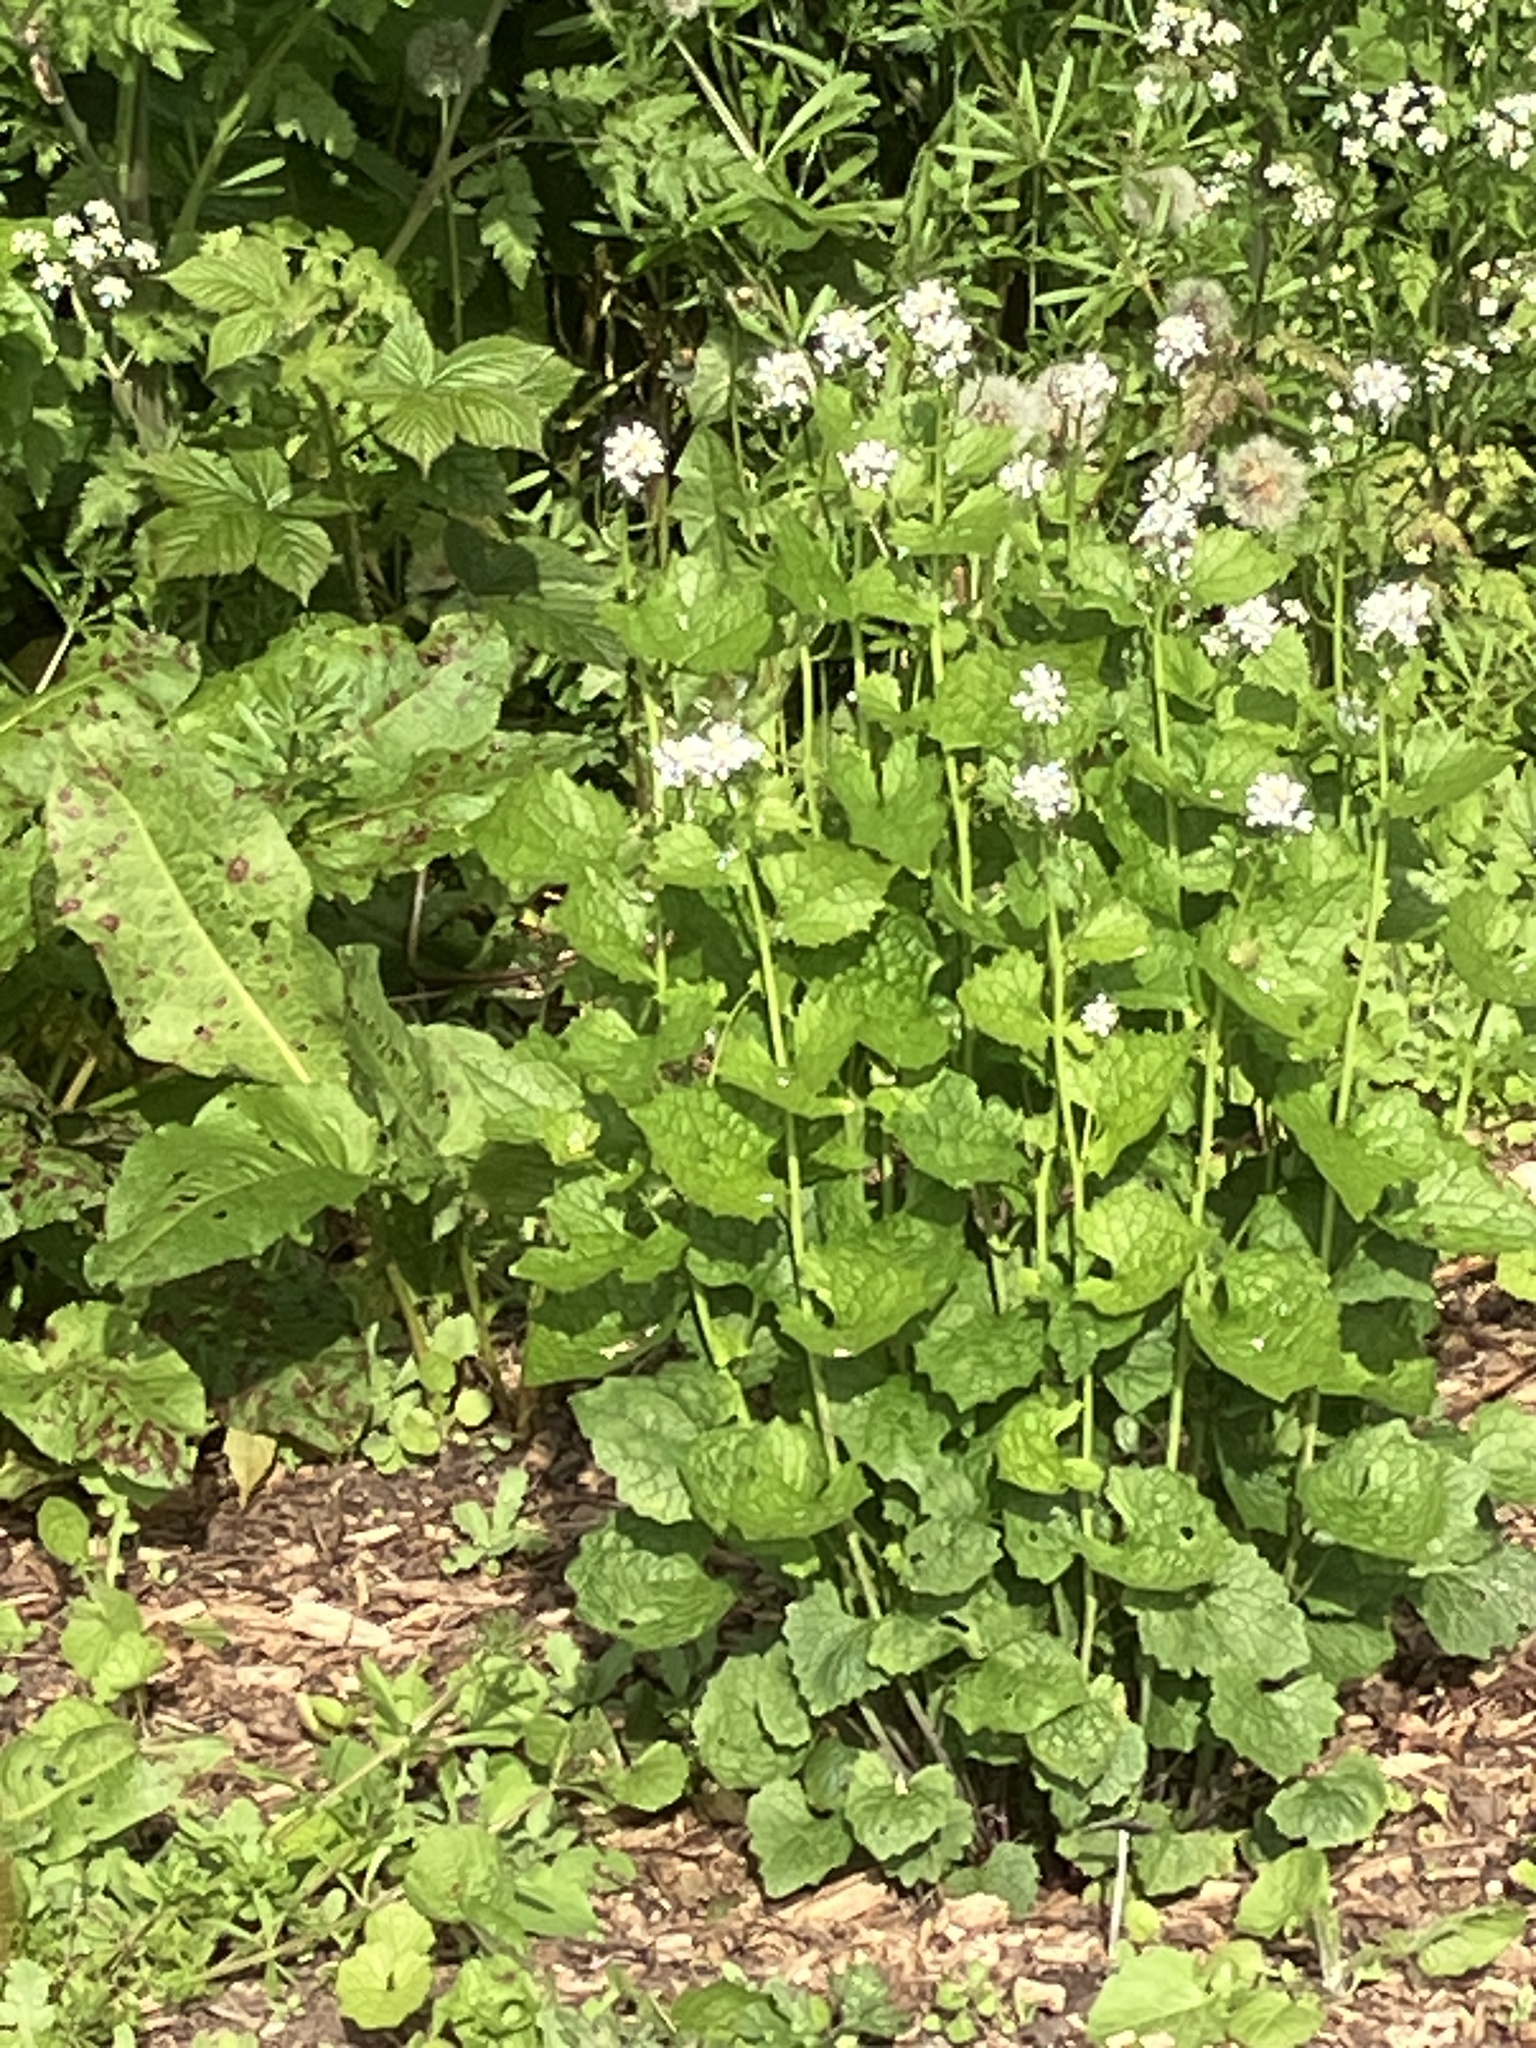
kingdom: Plantae
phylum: Tracheophyta
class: Magnoliopsida
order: Brassicales
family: Brassicaceae
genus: Alliaria
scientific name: Alliaria petiolata
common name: Garlic mustard
